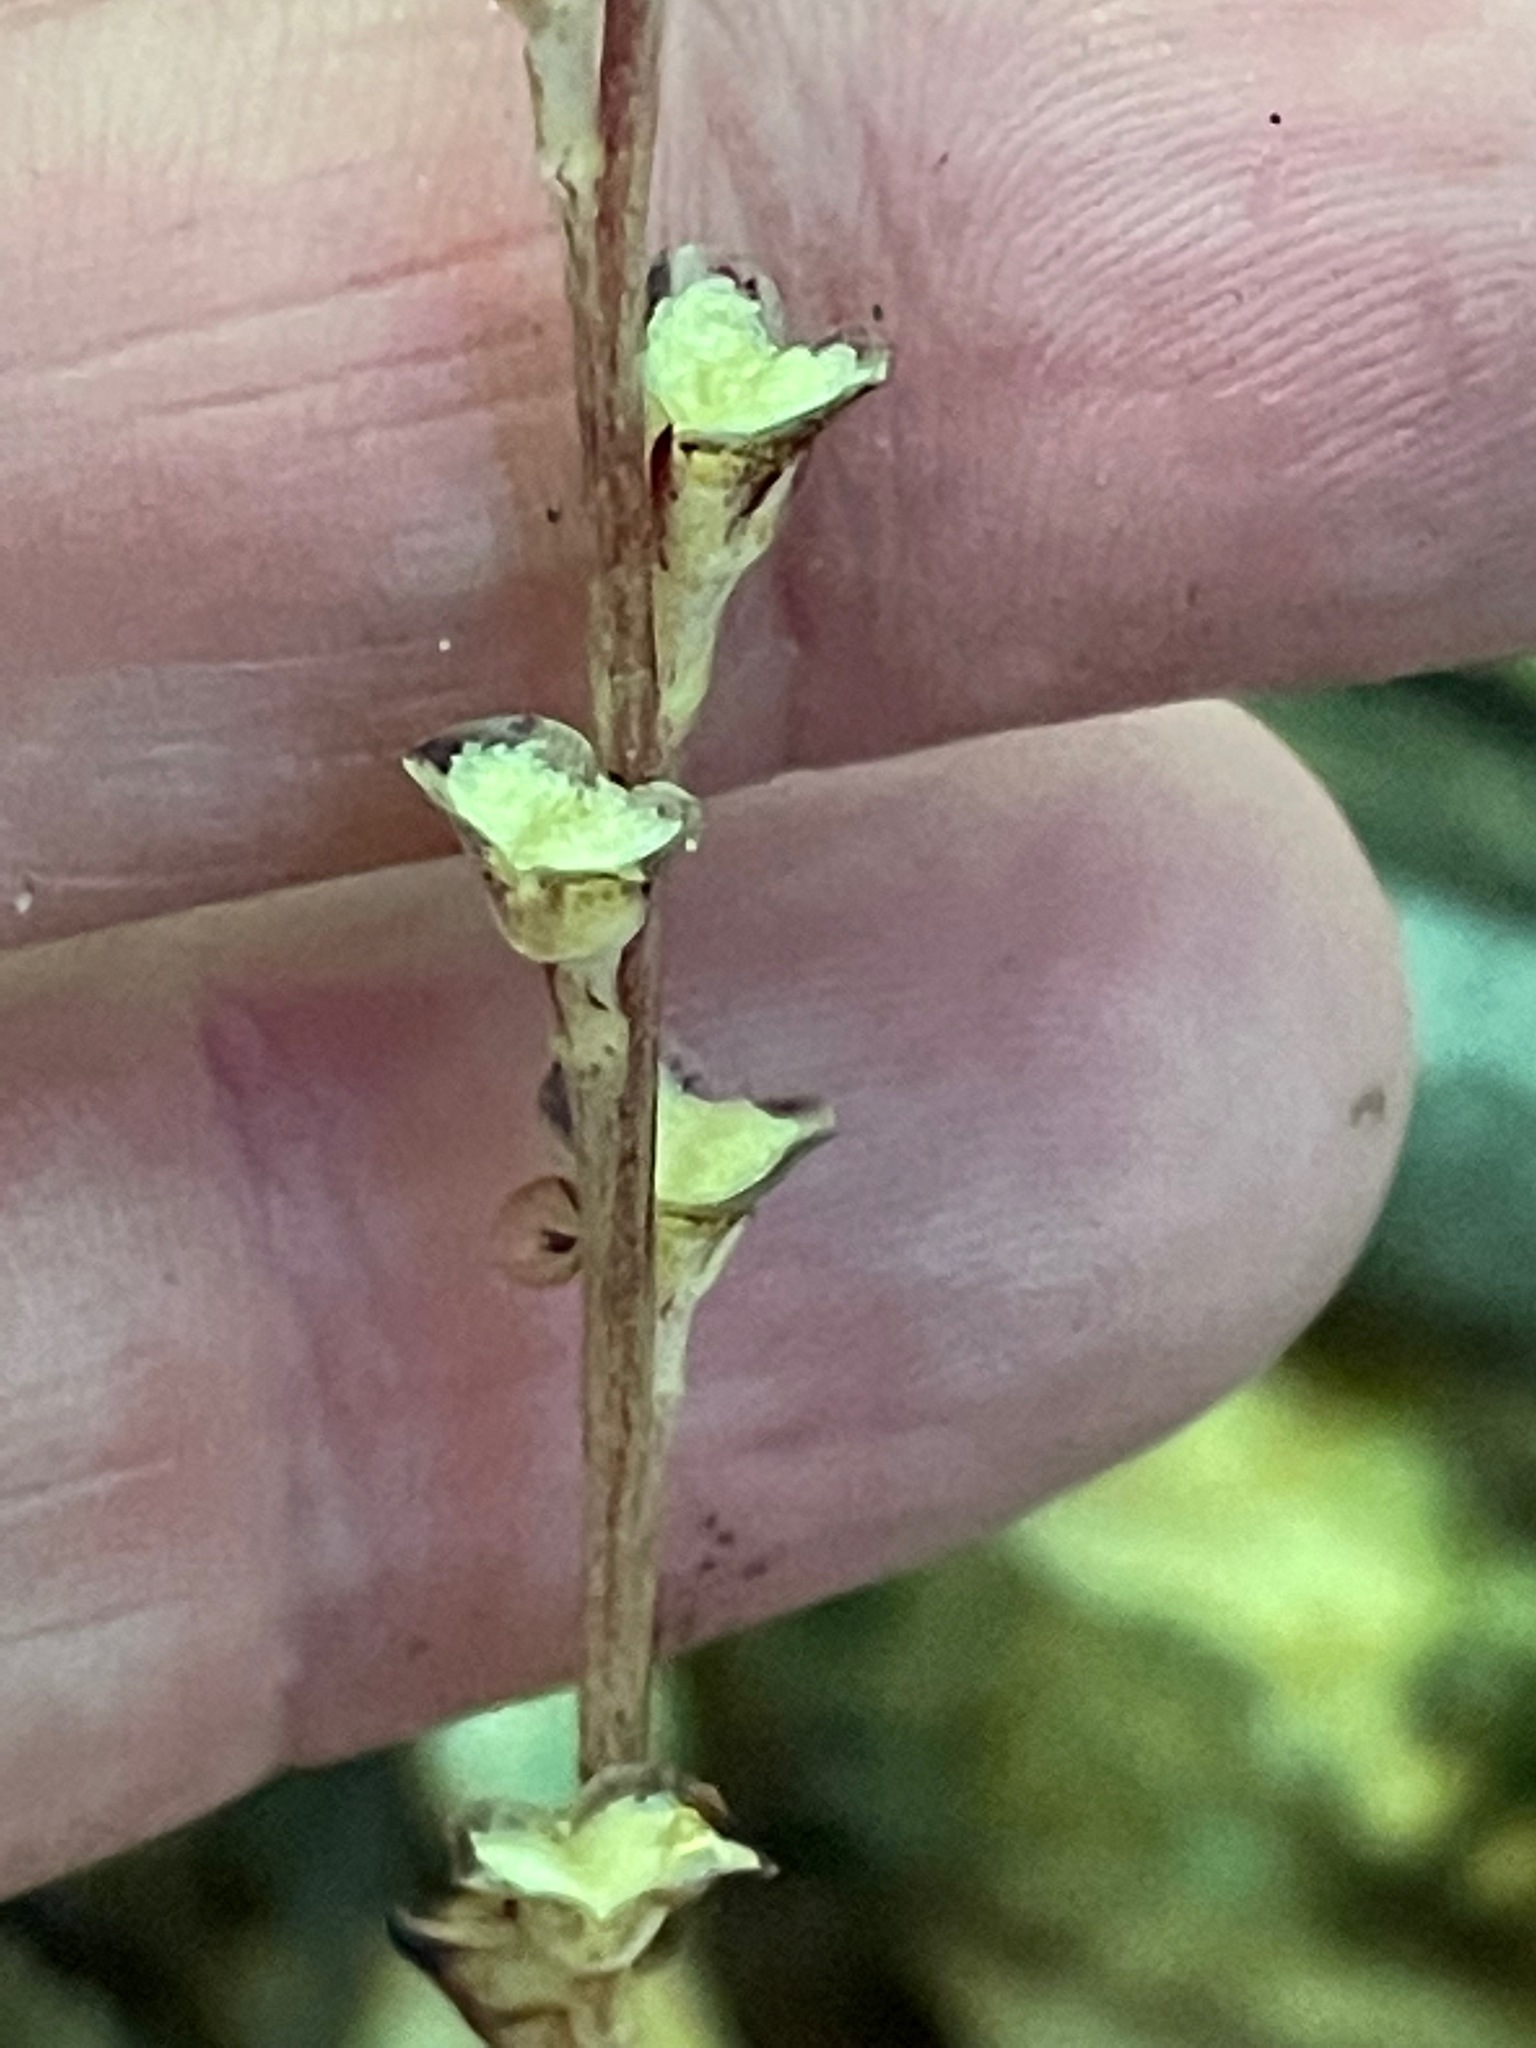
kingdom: Plantae
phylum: Tracheophyta
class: Magnoliopsida
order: Lamiales
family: Orobanchaceae
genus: Epifagus
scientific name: Epifagus virginiana
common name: Beechdrops
